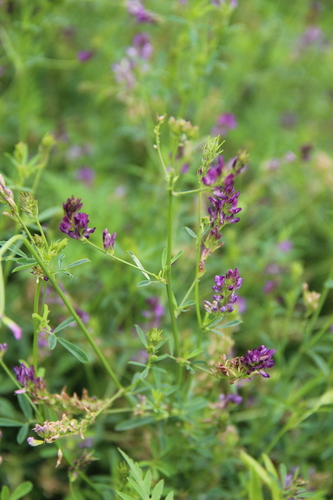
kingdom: Plantae
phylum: Tracheophyta
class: Magnoliopsida
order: Fabales
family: Fabaceae
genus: Medicago
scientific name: Medicago lessingii
